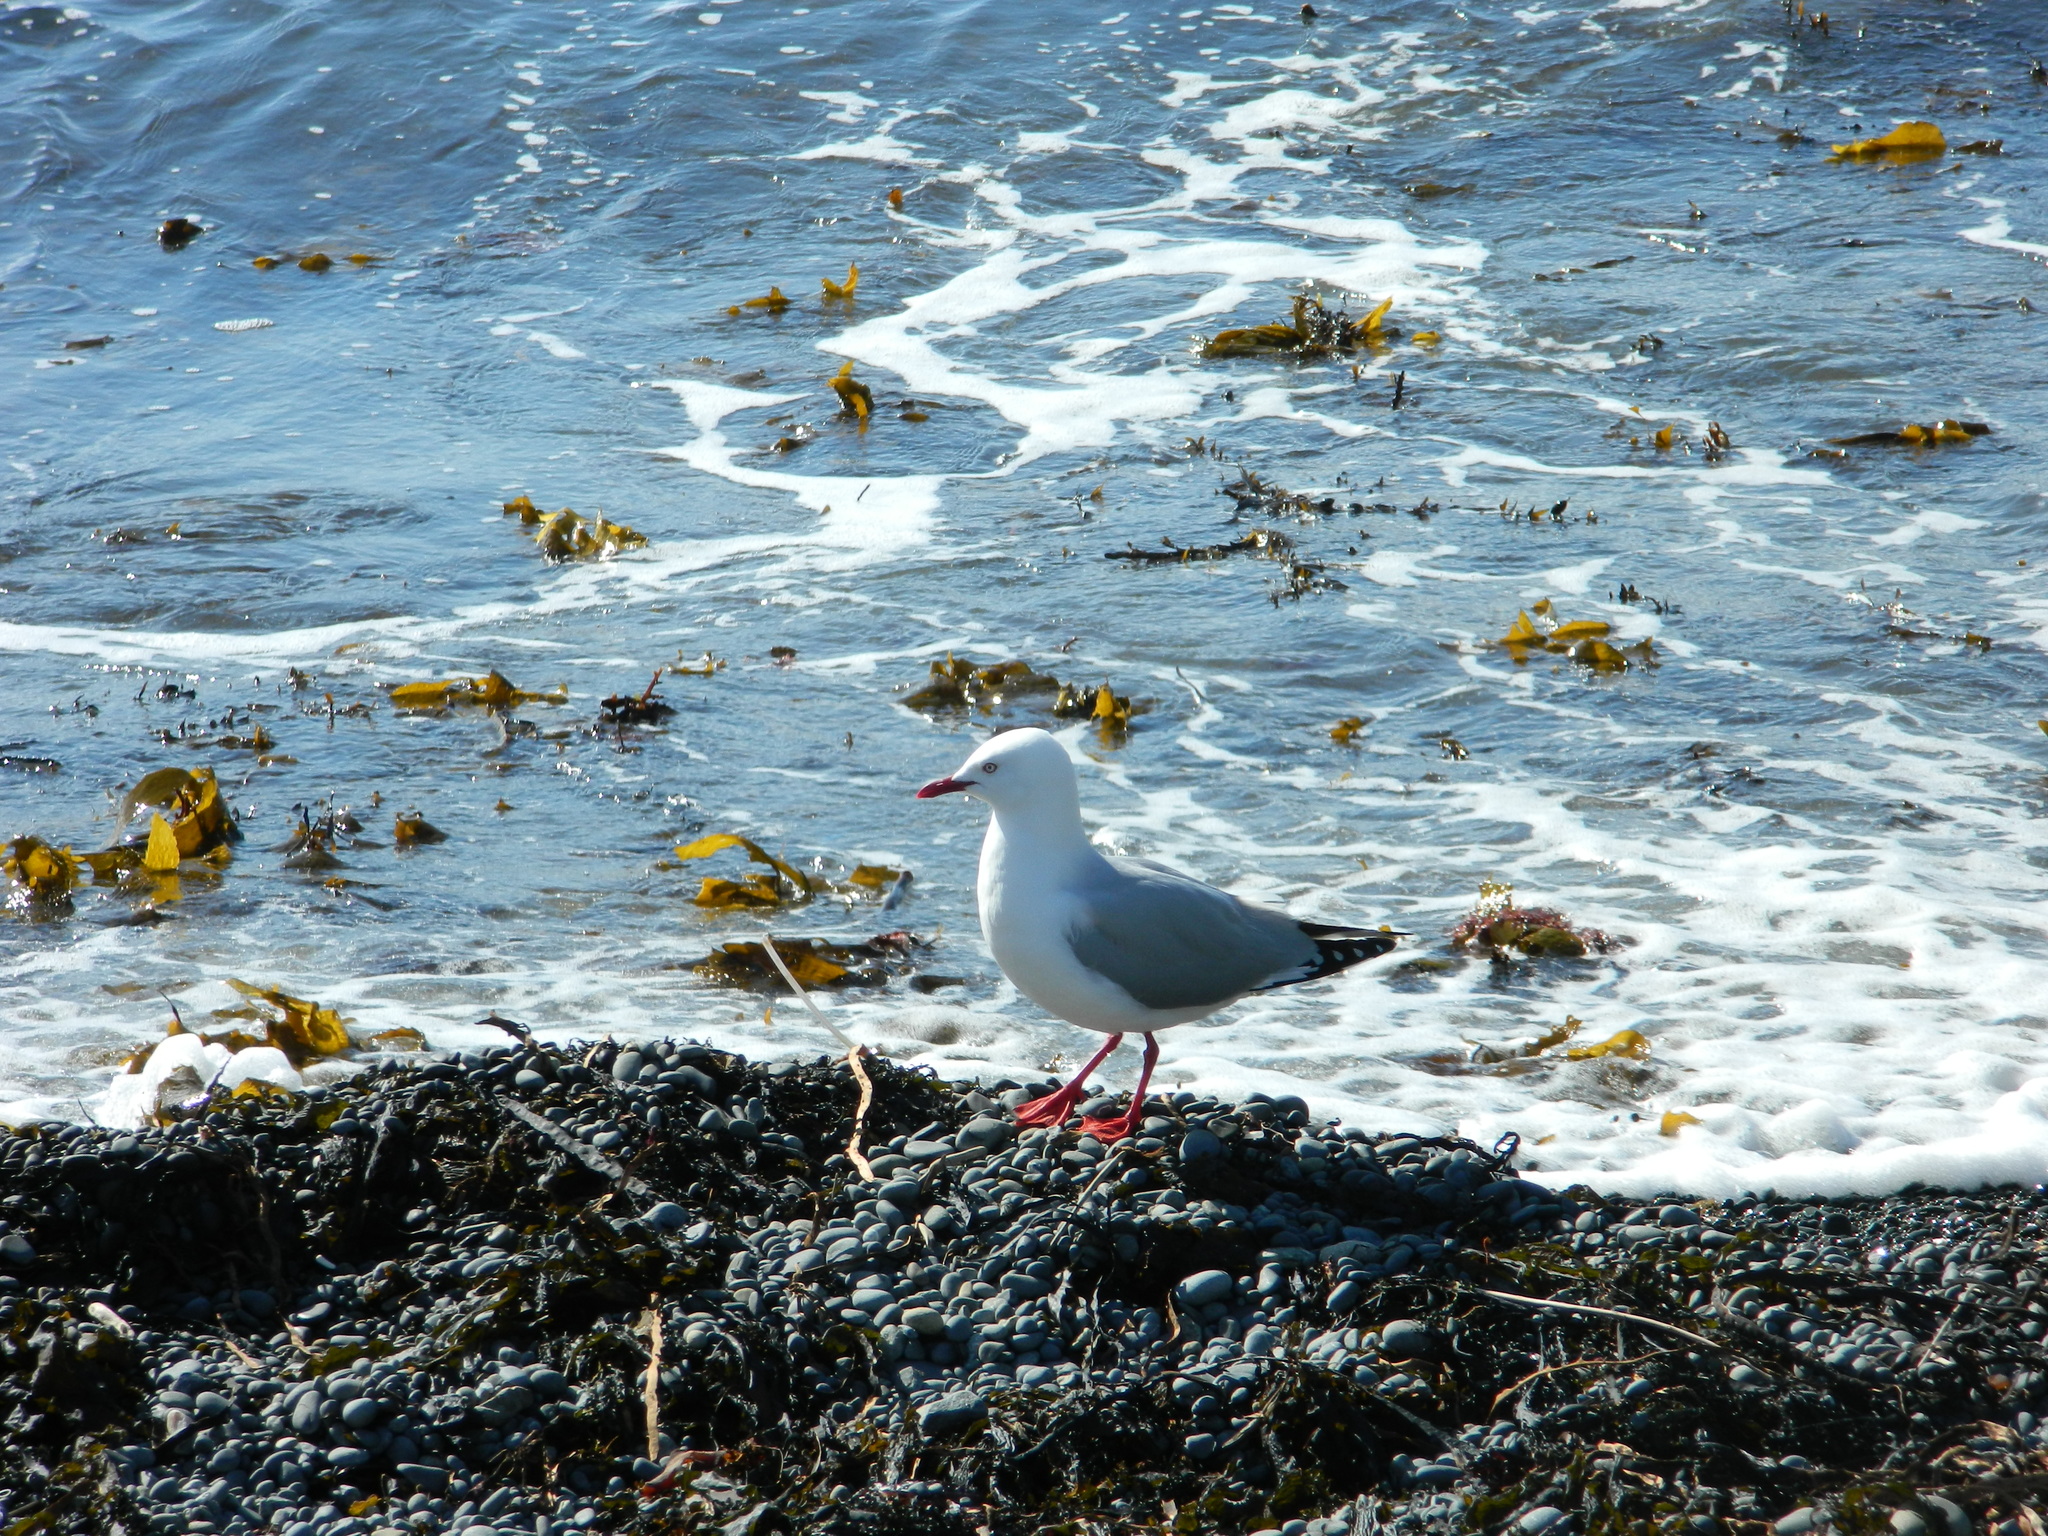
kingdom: Animalia
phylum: Chordata
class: Aves
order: Charadriiformes
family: Laridae
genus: Chroicocephalus
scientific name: Chroicocephalus novaehollandiae
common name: Silver gull
